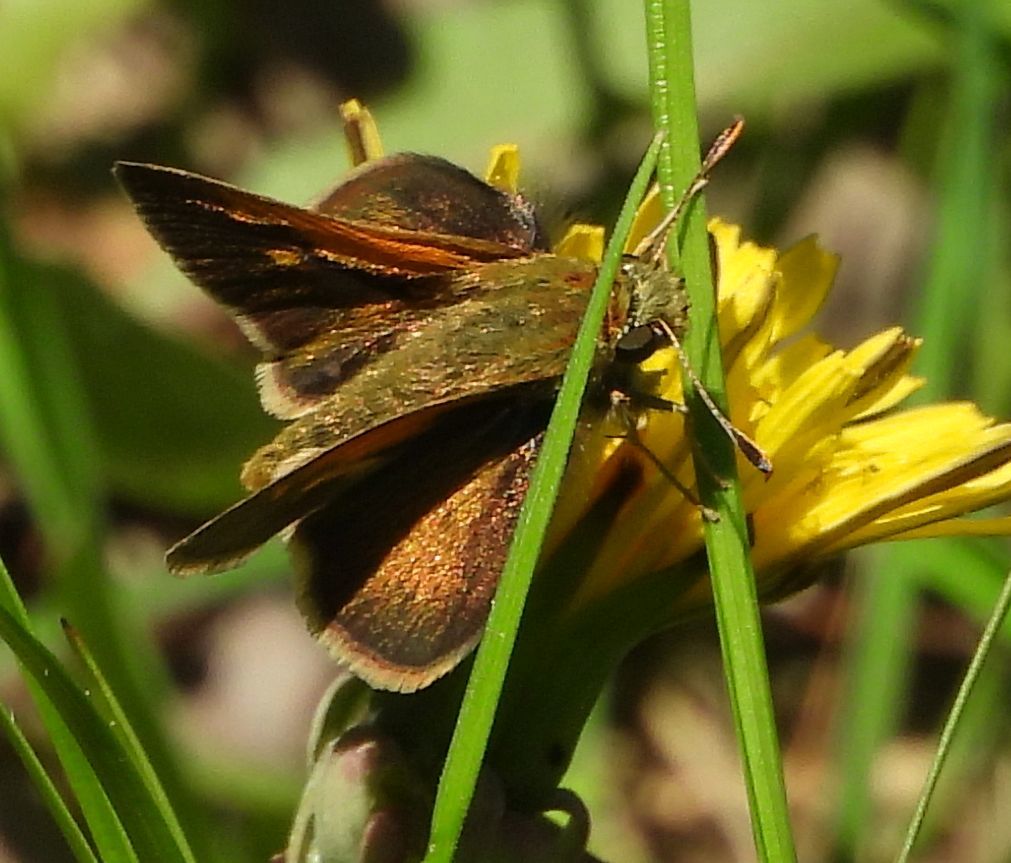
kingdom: Animalia
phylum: Arthropoda
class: Insecta
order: Lepidoptera
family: Hesperiidae
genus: Polites
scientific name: Polites themistocles
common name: Tawny-edged skipper
